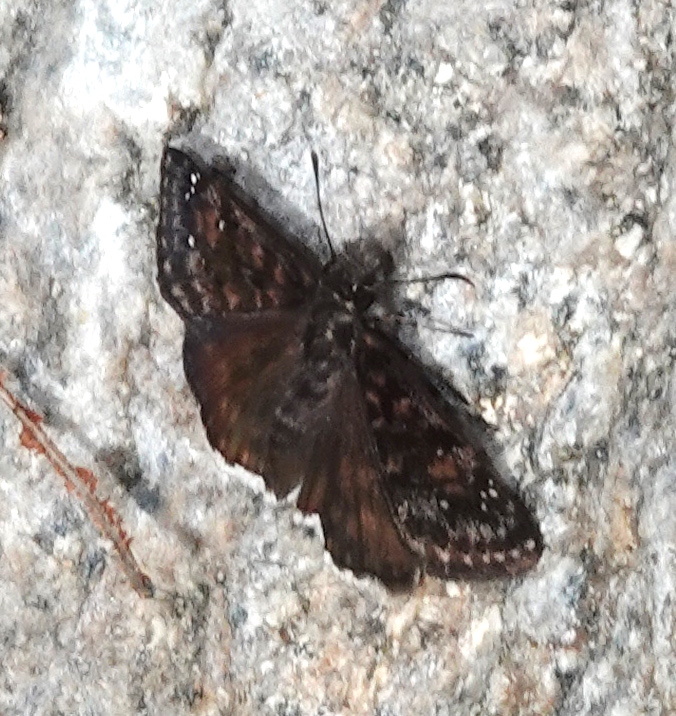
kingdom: Animalia
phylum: Arthropoda
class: Insecta
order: Lepidoptera
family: Hesperiidae
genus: Erynnis
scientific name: Erynnis pacuvius
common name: Pacuvius duskywing
